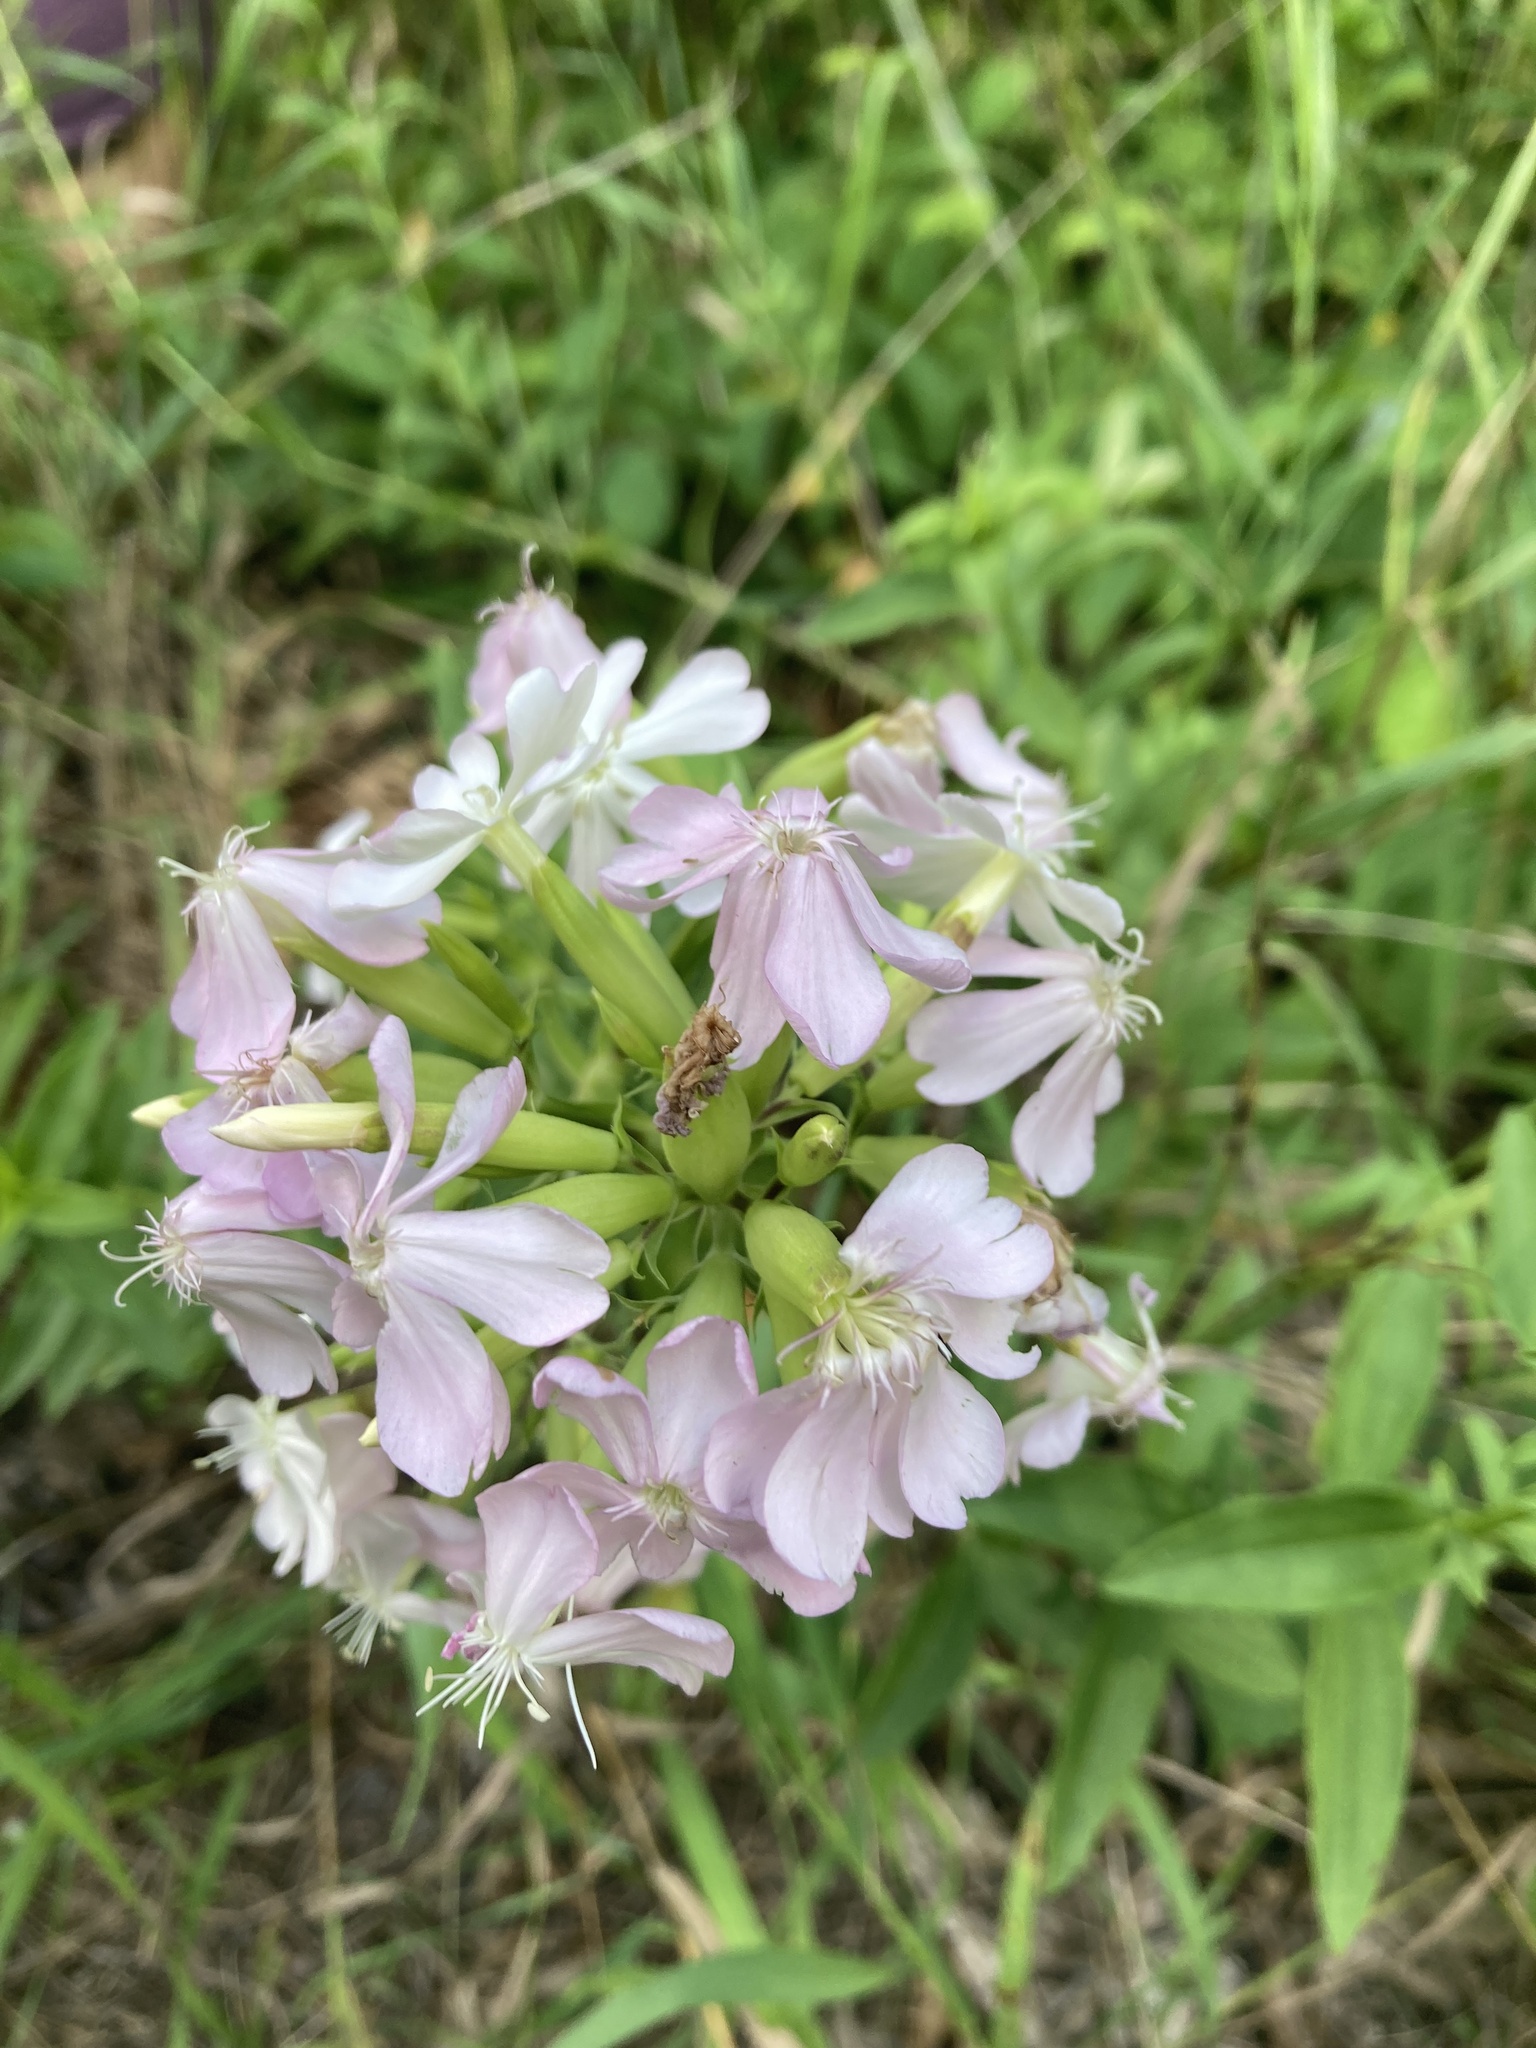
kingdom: Plantae
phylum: Tracheophyta
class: Magnoliopsida
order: Caryophyllales
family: Caryophyllaceae
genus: Saponaria
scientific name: Saponaria officinalis
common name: Soapwort
